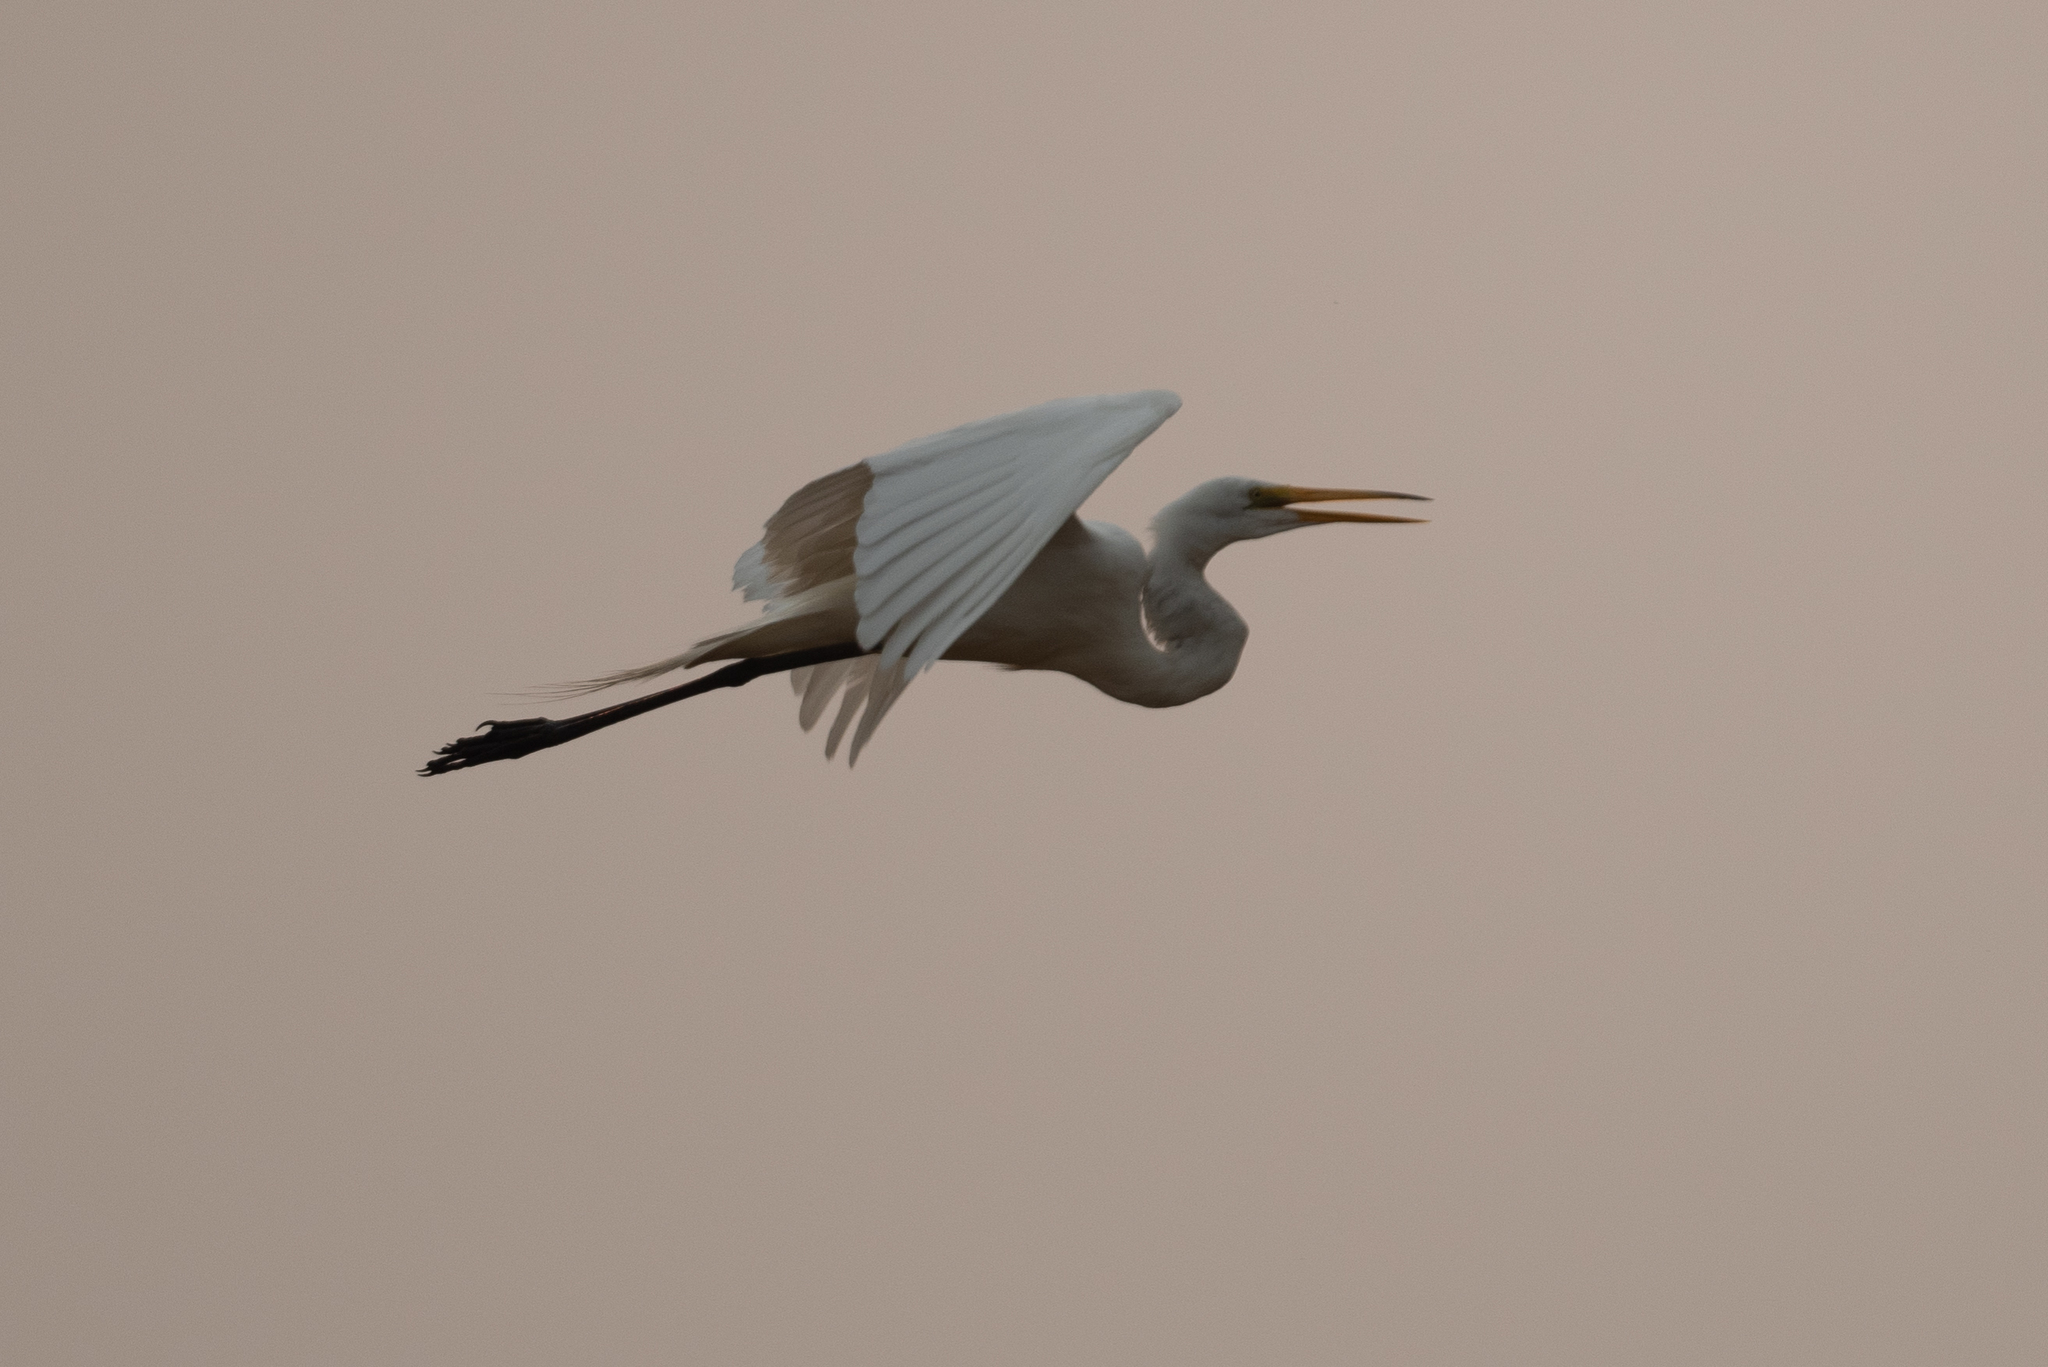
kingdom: Animalia
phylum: Chordata
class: Aves
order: Pelecaniformes
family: Ardeidae
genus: Ardea
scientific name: Ardea alba
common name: Great egret
